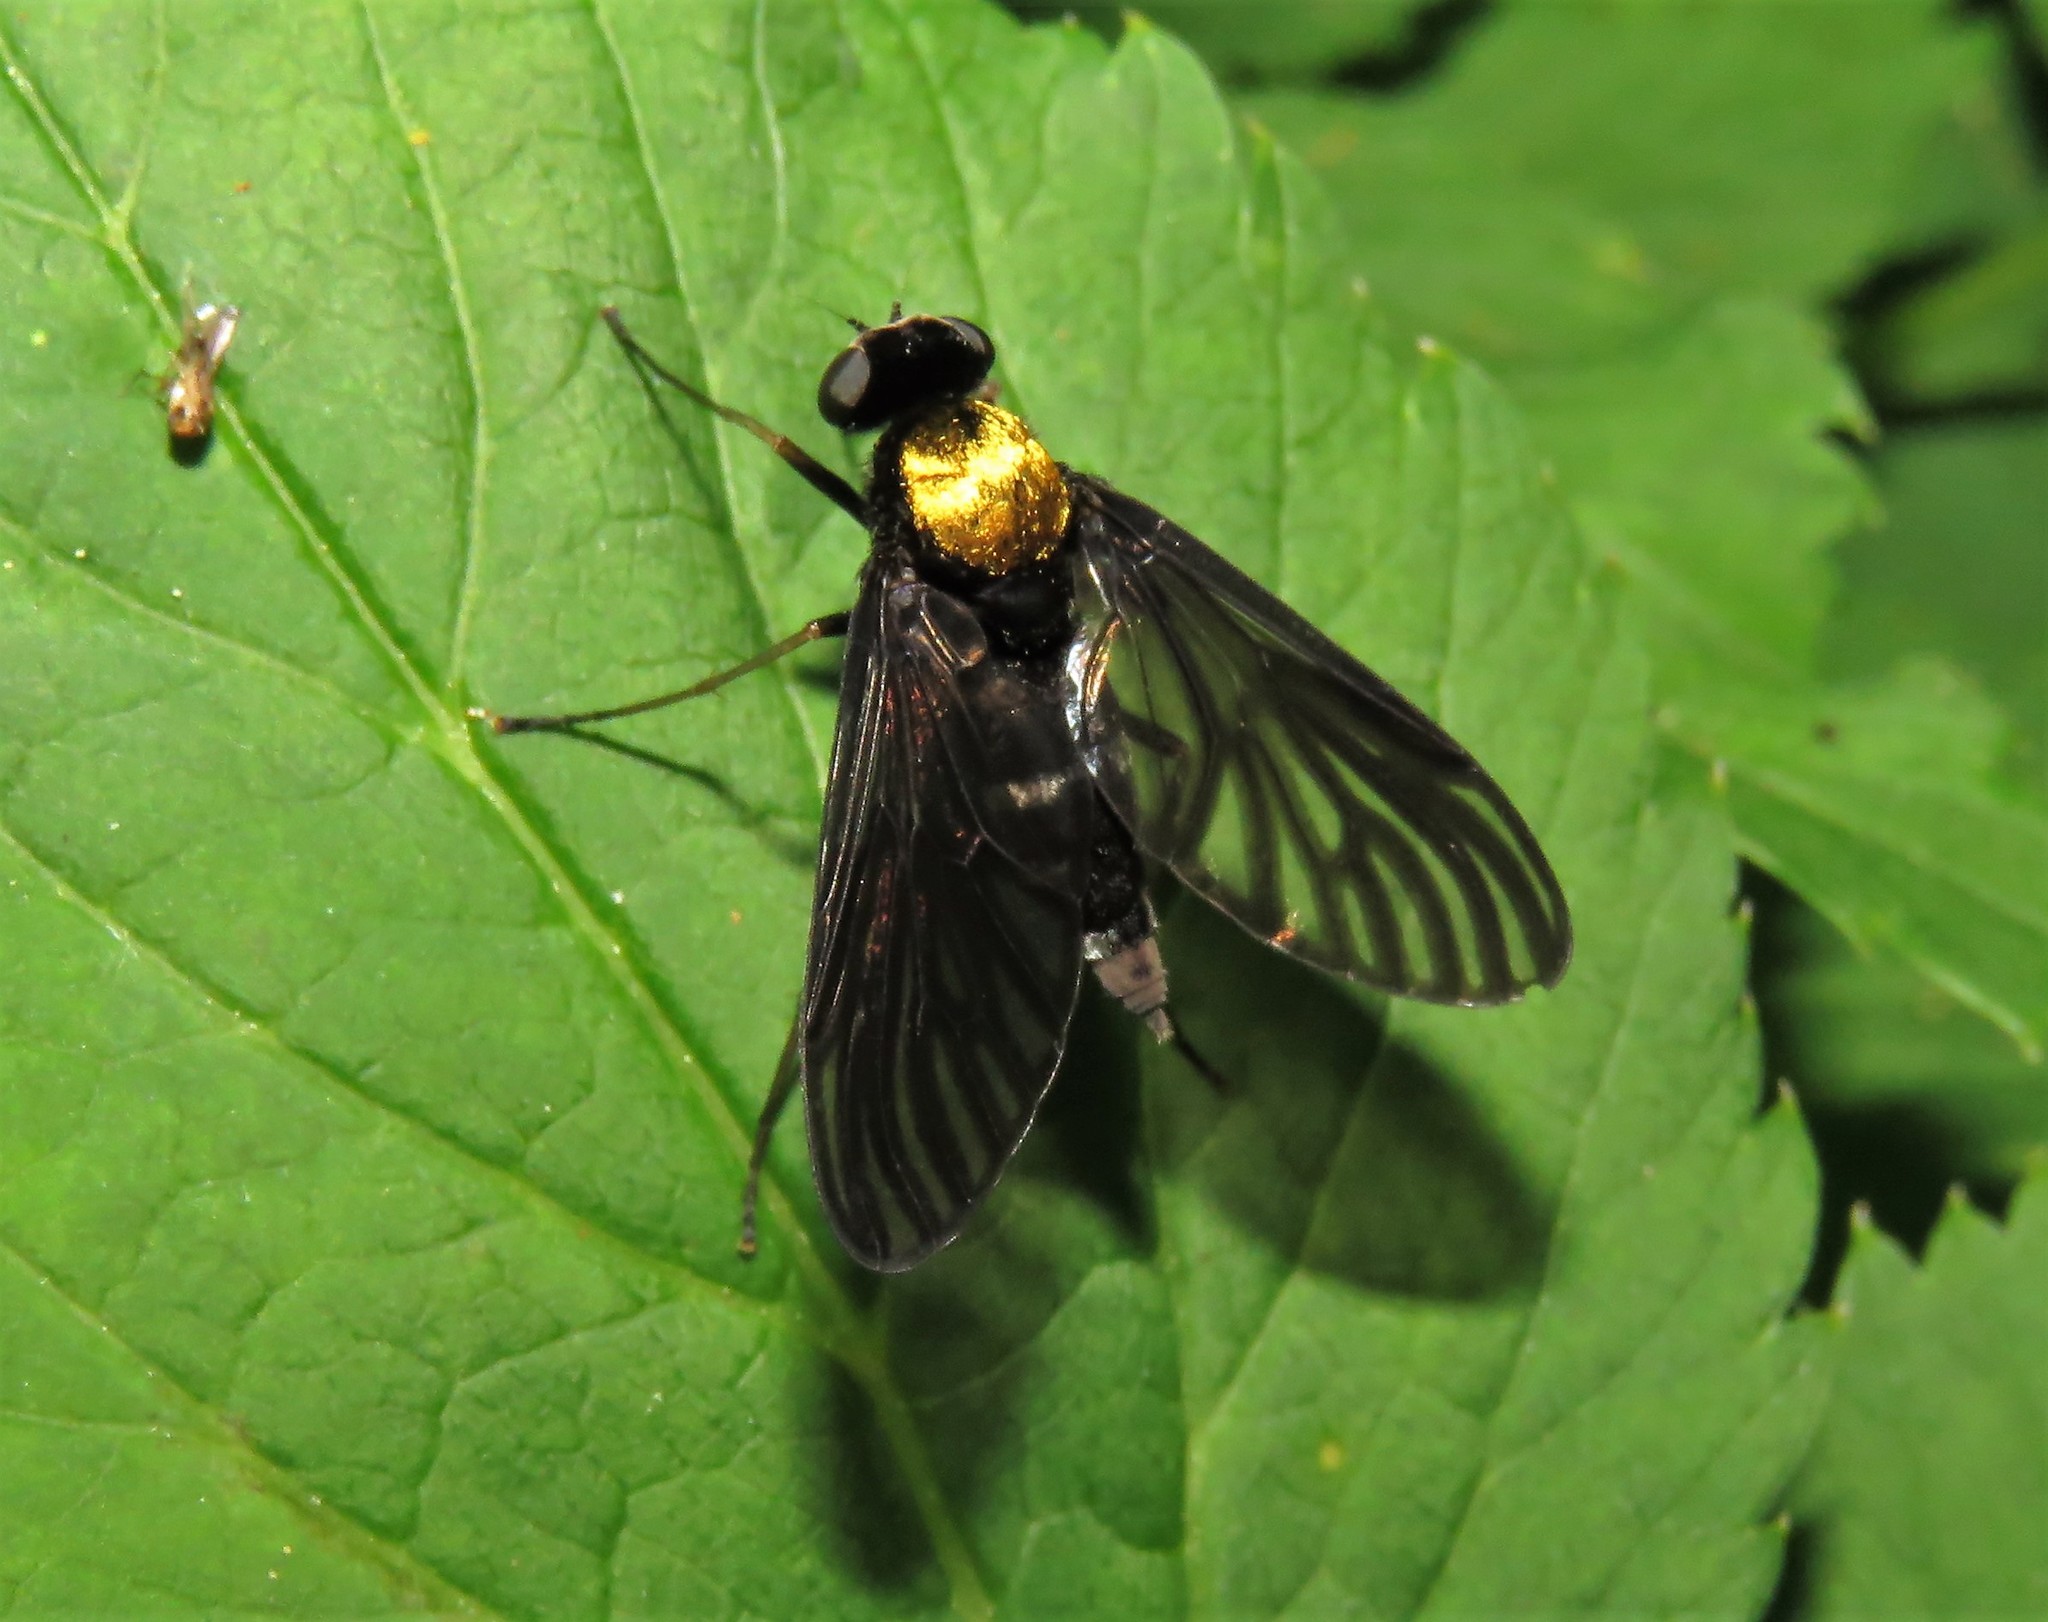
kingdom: Animalia
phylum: Arthropoda
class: Insecta
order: Diptera
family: Rhagionidae
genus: Chrysopilus
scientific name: Chrysopilus thoracicus
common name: Golden-backed snipe fly
